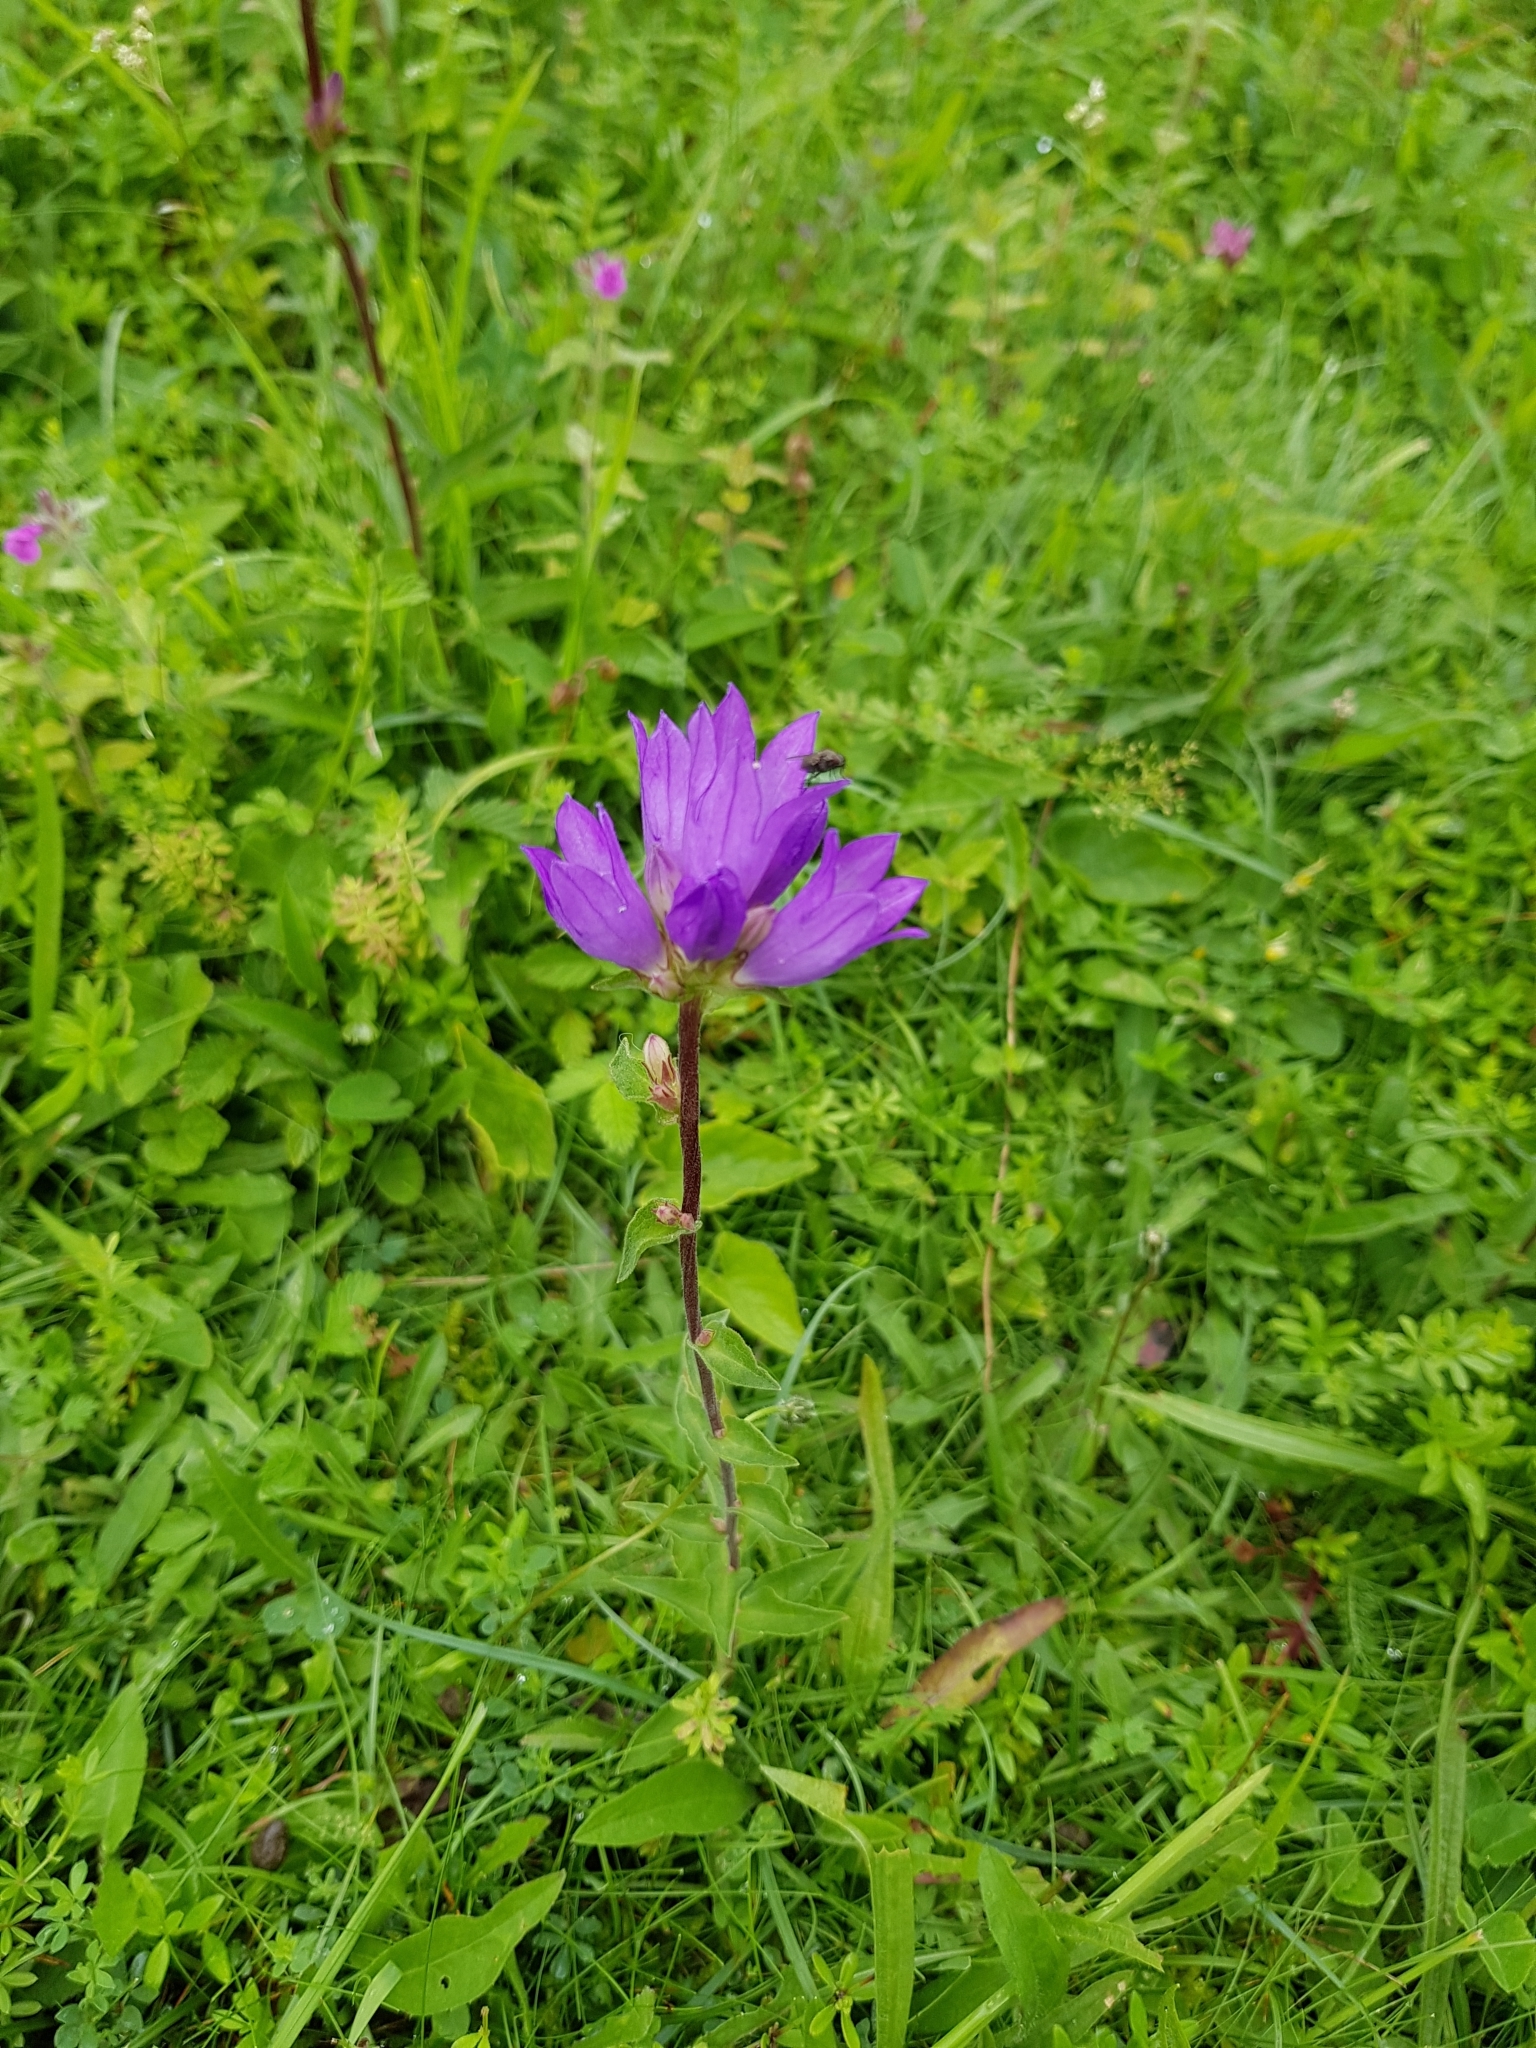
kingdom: Plantae
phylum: Tracheophyta
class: Magnoliopsida
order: Asterales
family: Campanulaceae
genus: Campanula
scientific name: Campanula glomerata
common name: Clustered bellflower
